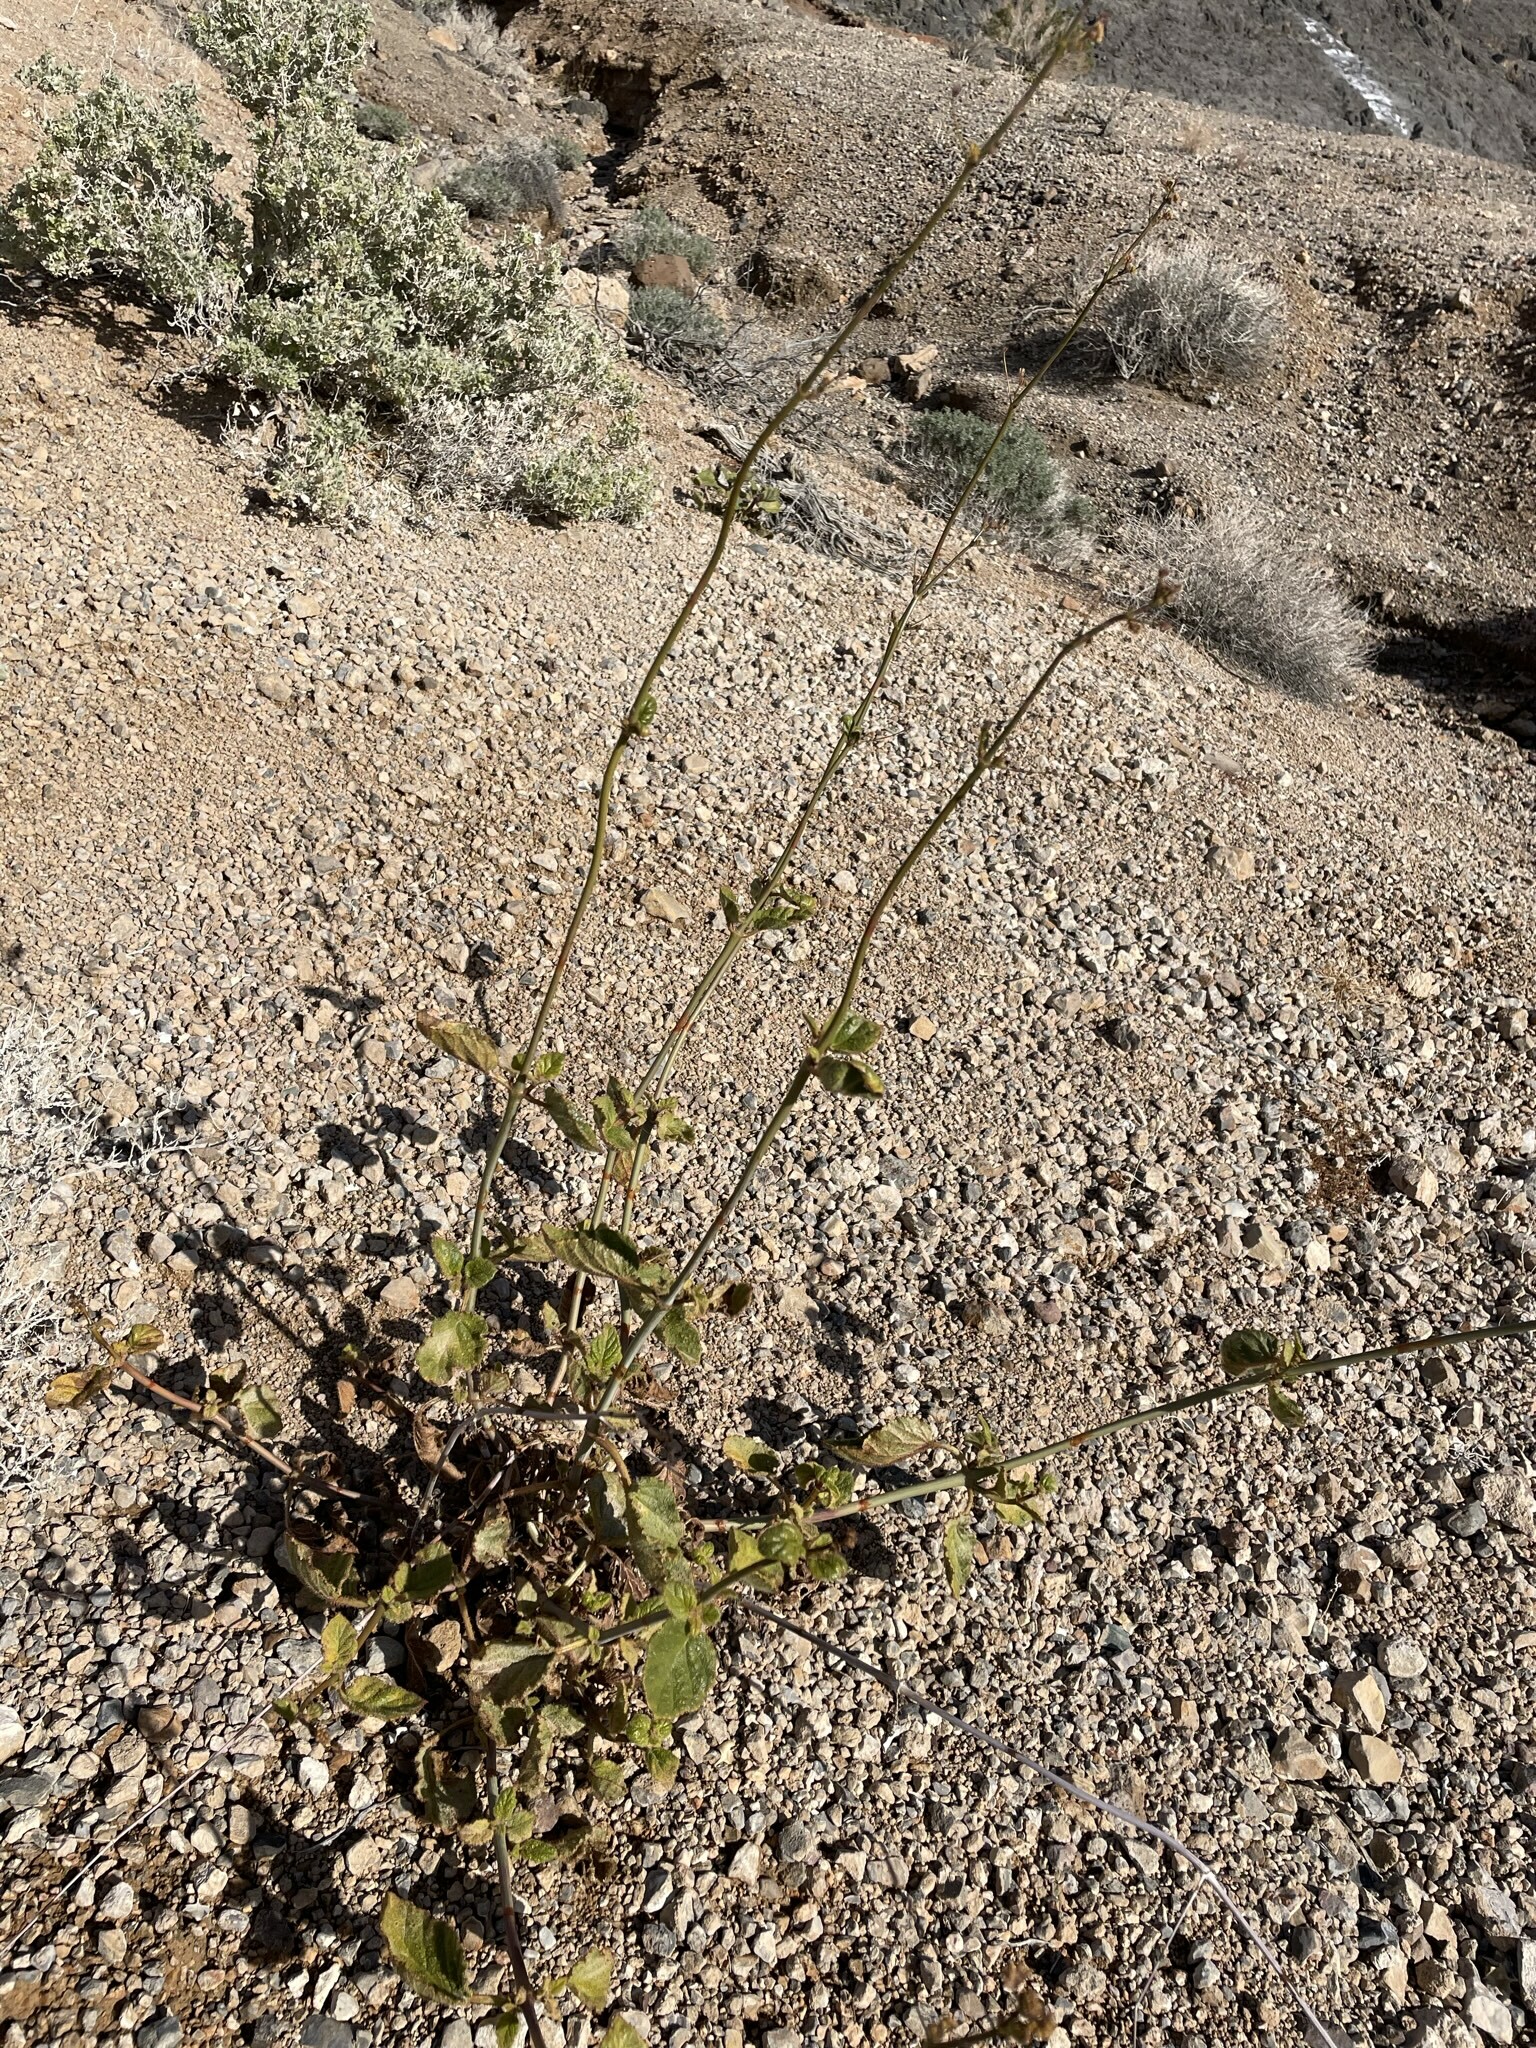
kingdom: Plantae
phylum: Tracheophyta
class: Magnoliopsida
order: Caryophyllales
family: Nyctaginaceae
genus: Anulocaulis
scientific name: Anulocaulis annulatus
